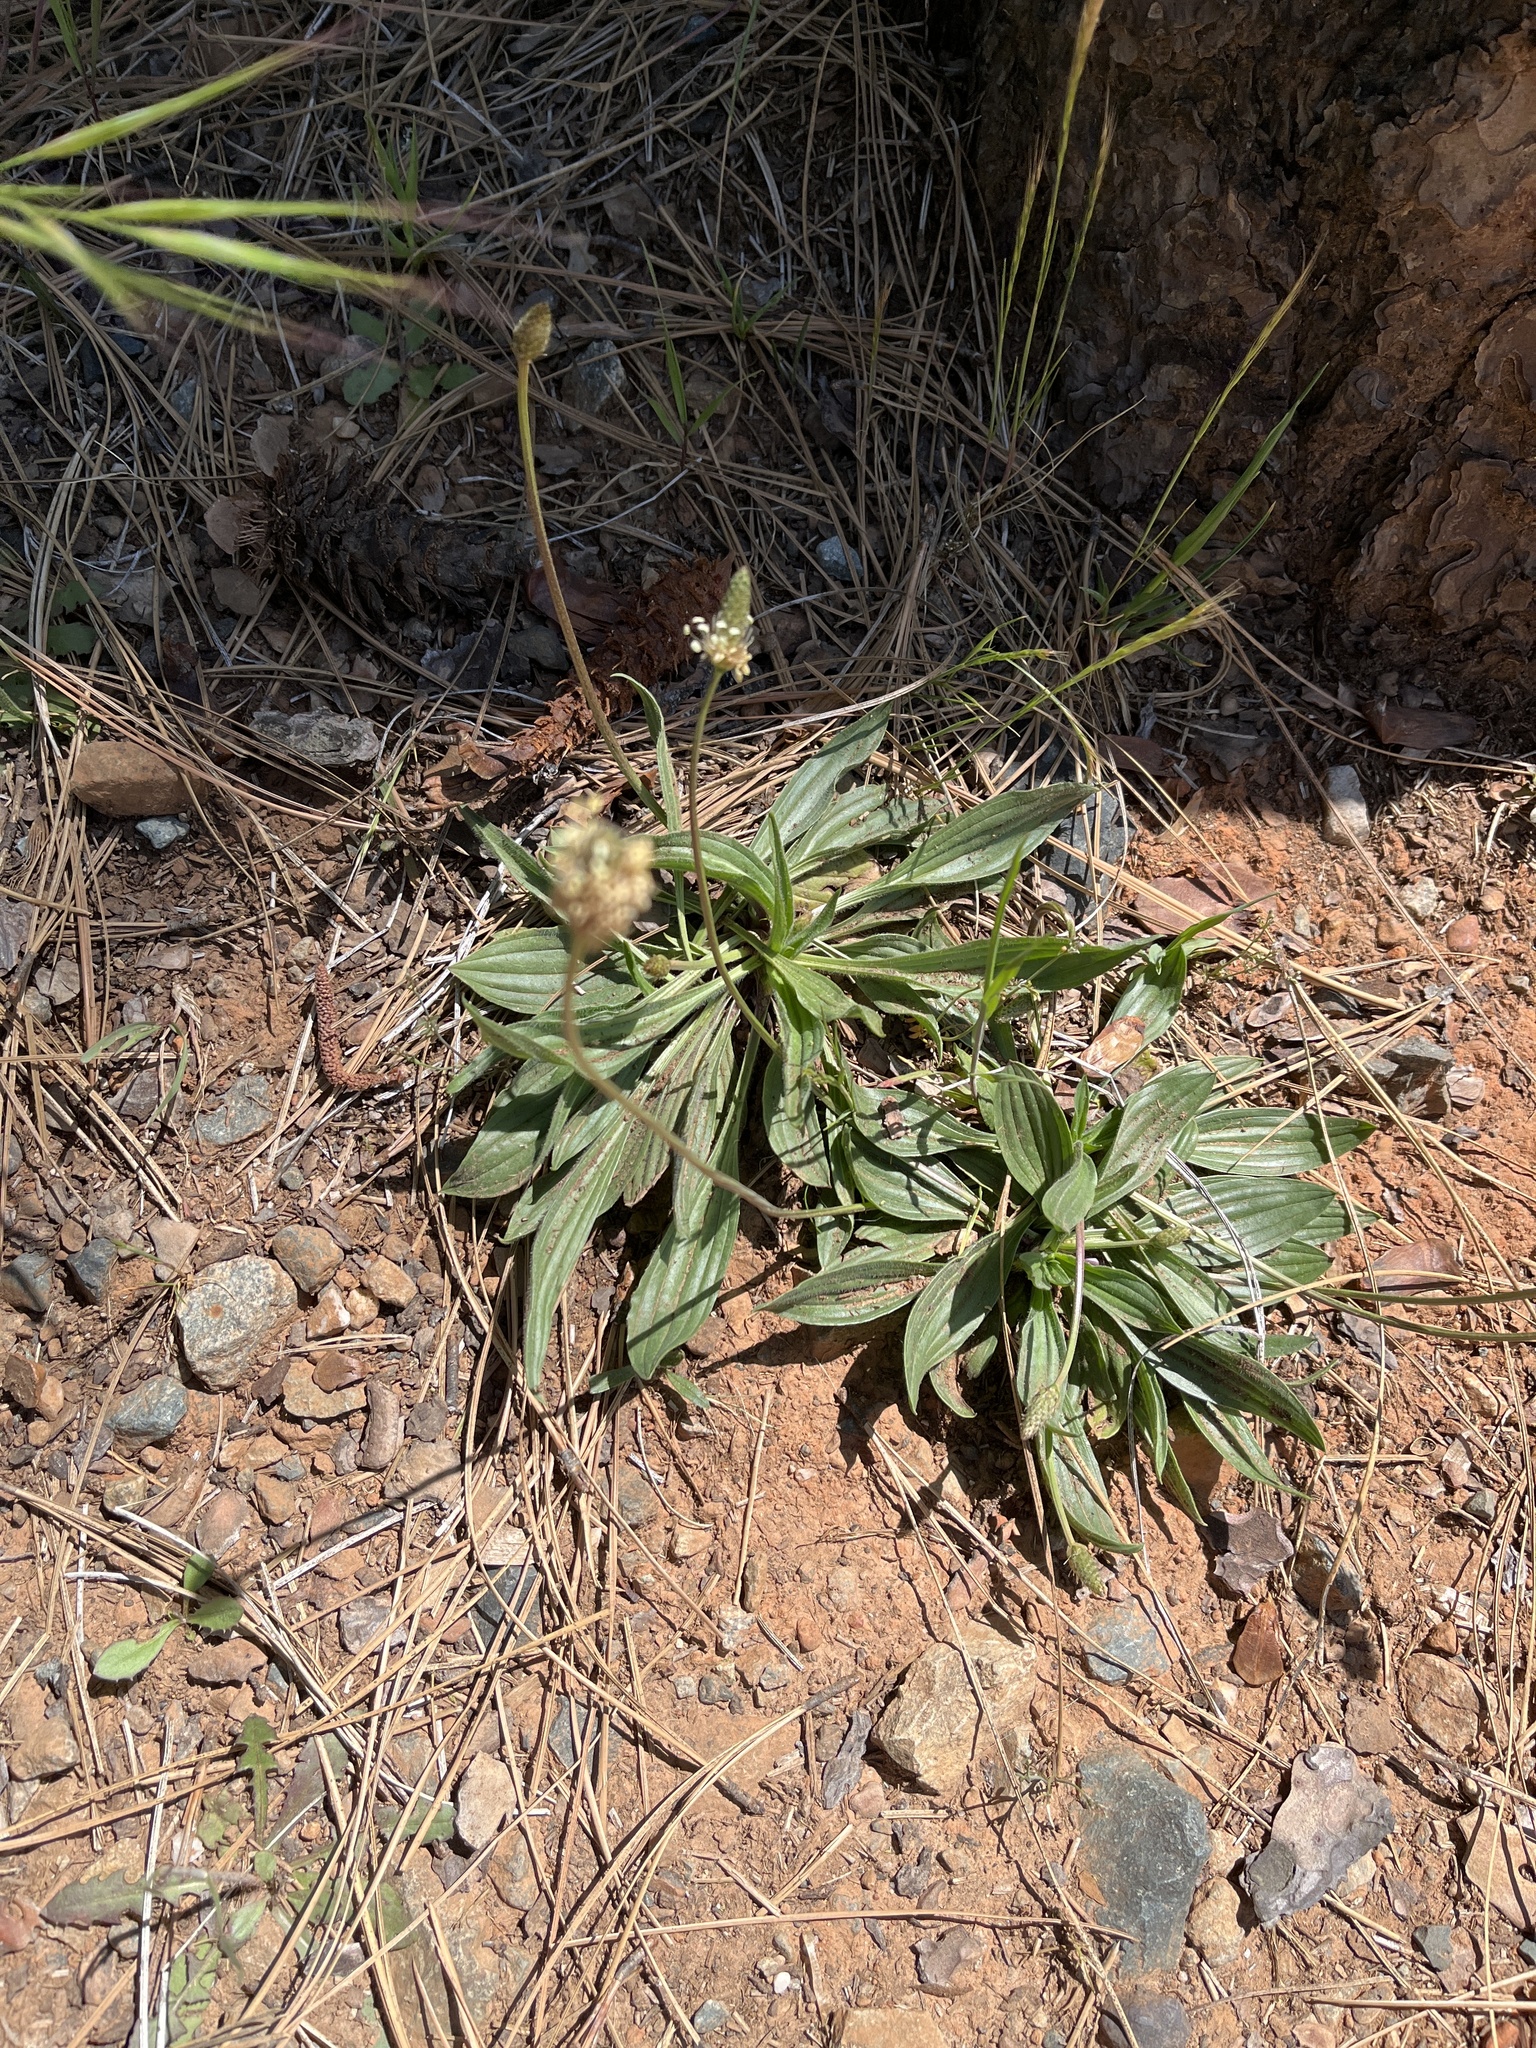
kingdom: Plantae
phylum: Tracheophyta
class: Magnoliopsida
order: Lamiales
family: Plantaginaceae
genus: Plantago
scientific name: Plantago lanceolata
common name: Ribwort plantain
